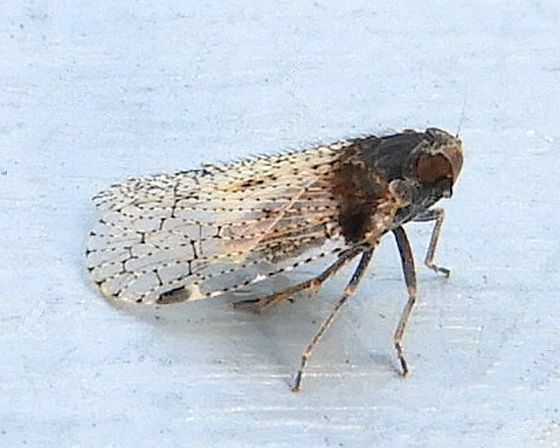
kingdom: Animalia
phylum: Arthropoda
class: Insecta
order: Hemiptera
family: Cixiidae
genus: Cixius
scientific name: Cixius stigmatus
